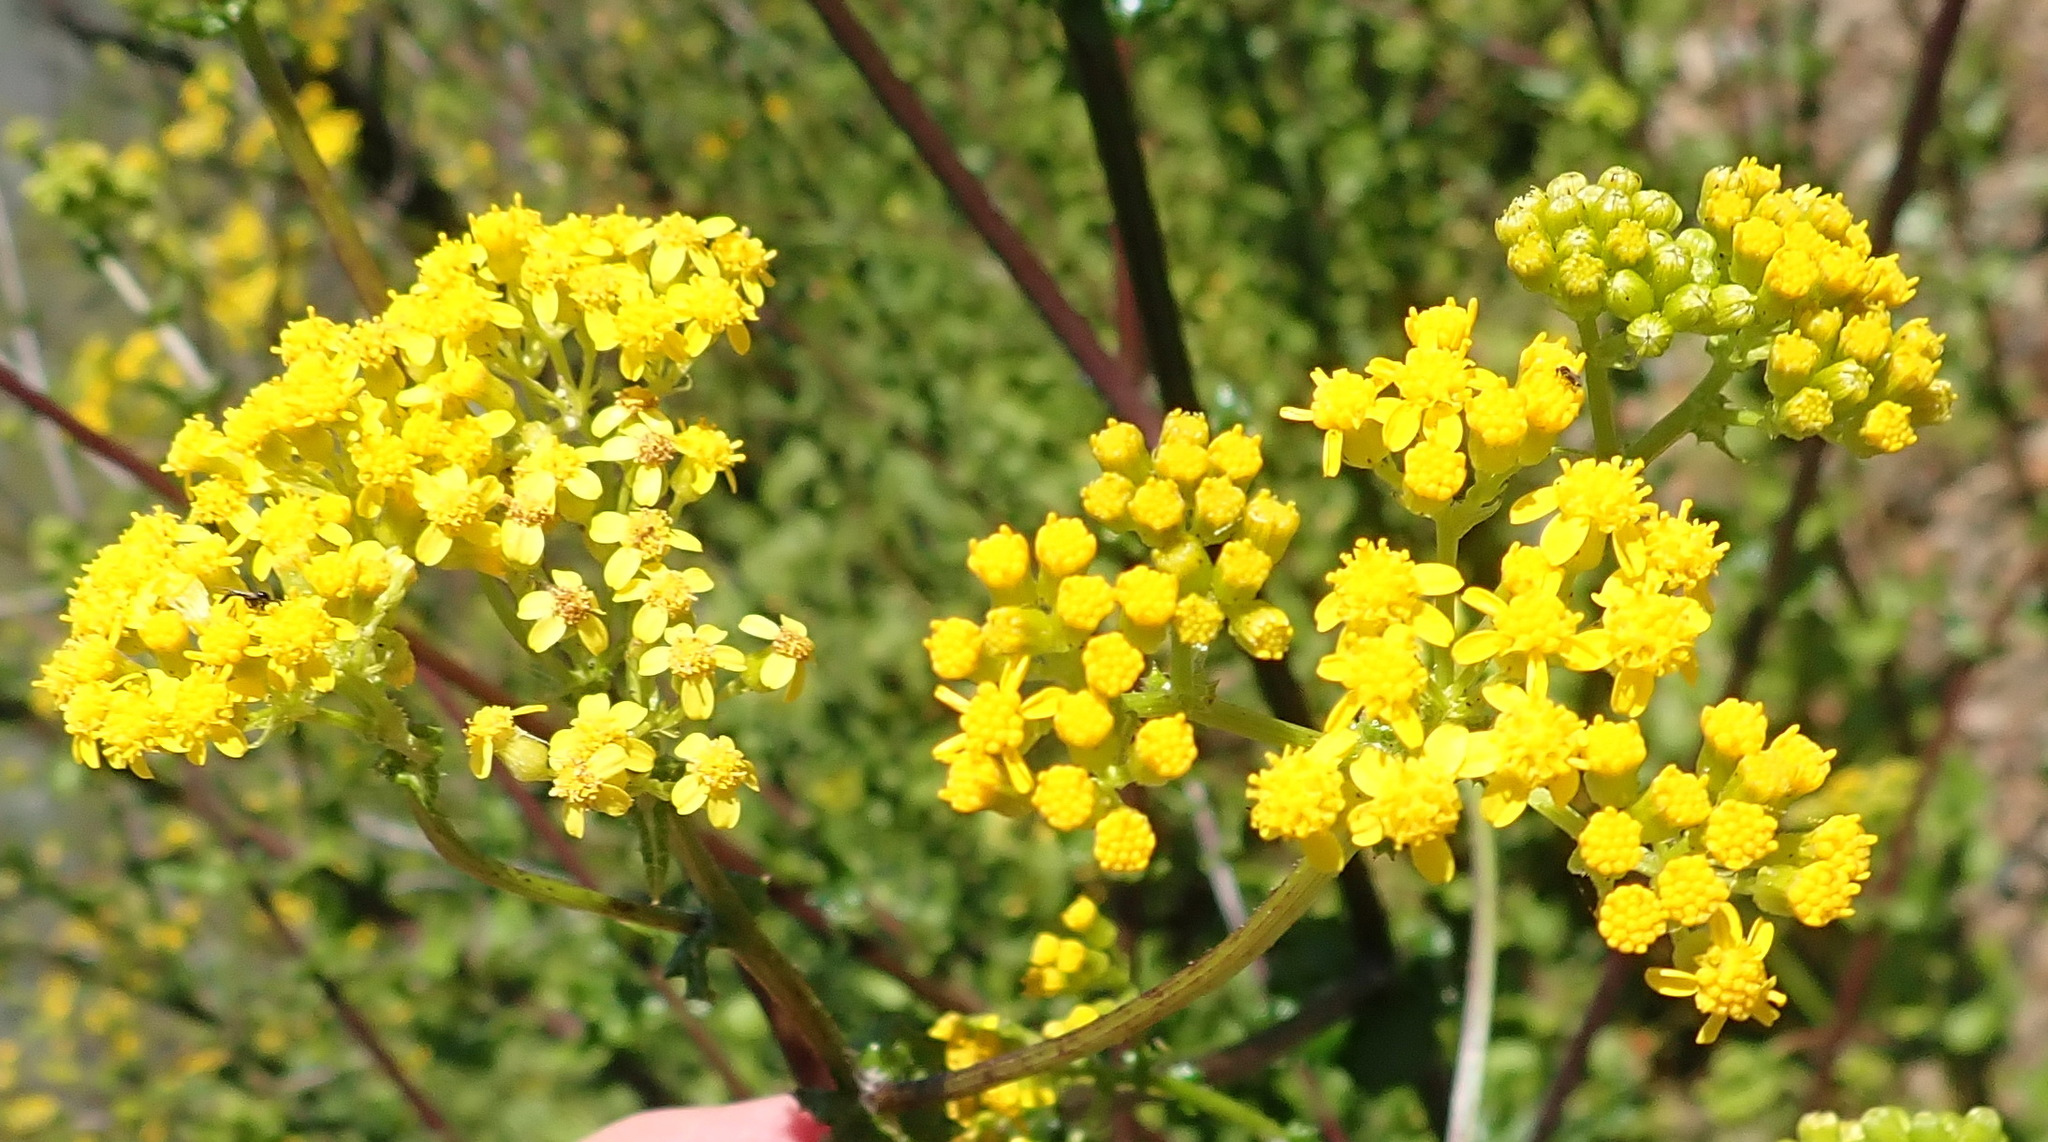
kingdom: Plantae
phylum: Tracheophyta
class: Magnoliopsida
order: Asterales
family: Asteraceae
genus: Senecio
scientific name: Senecio rigidus
